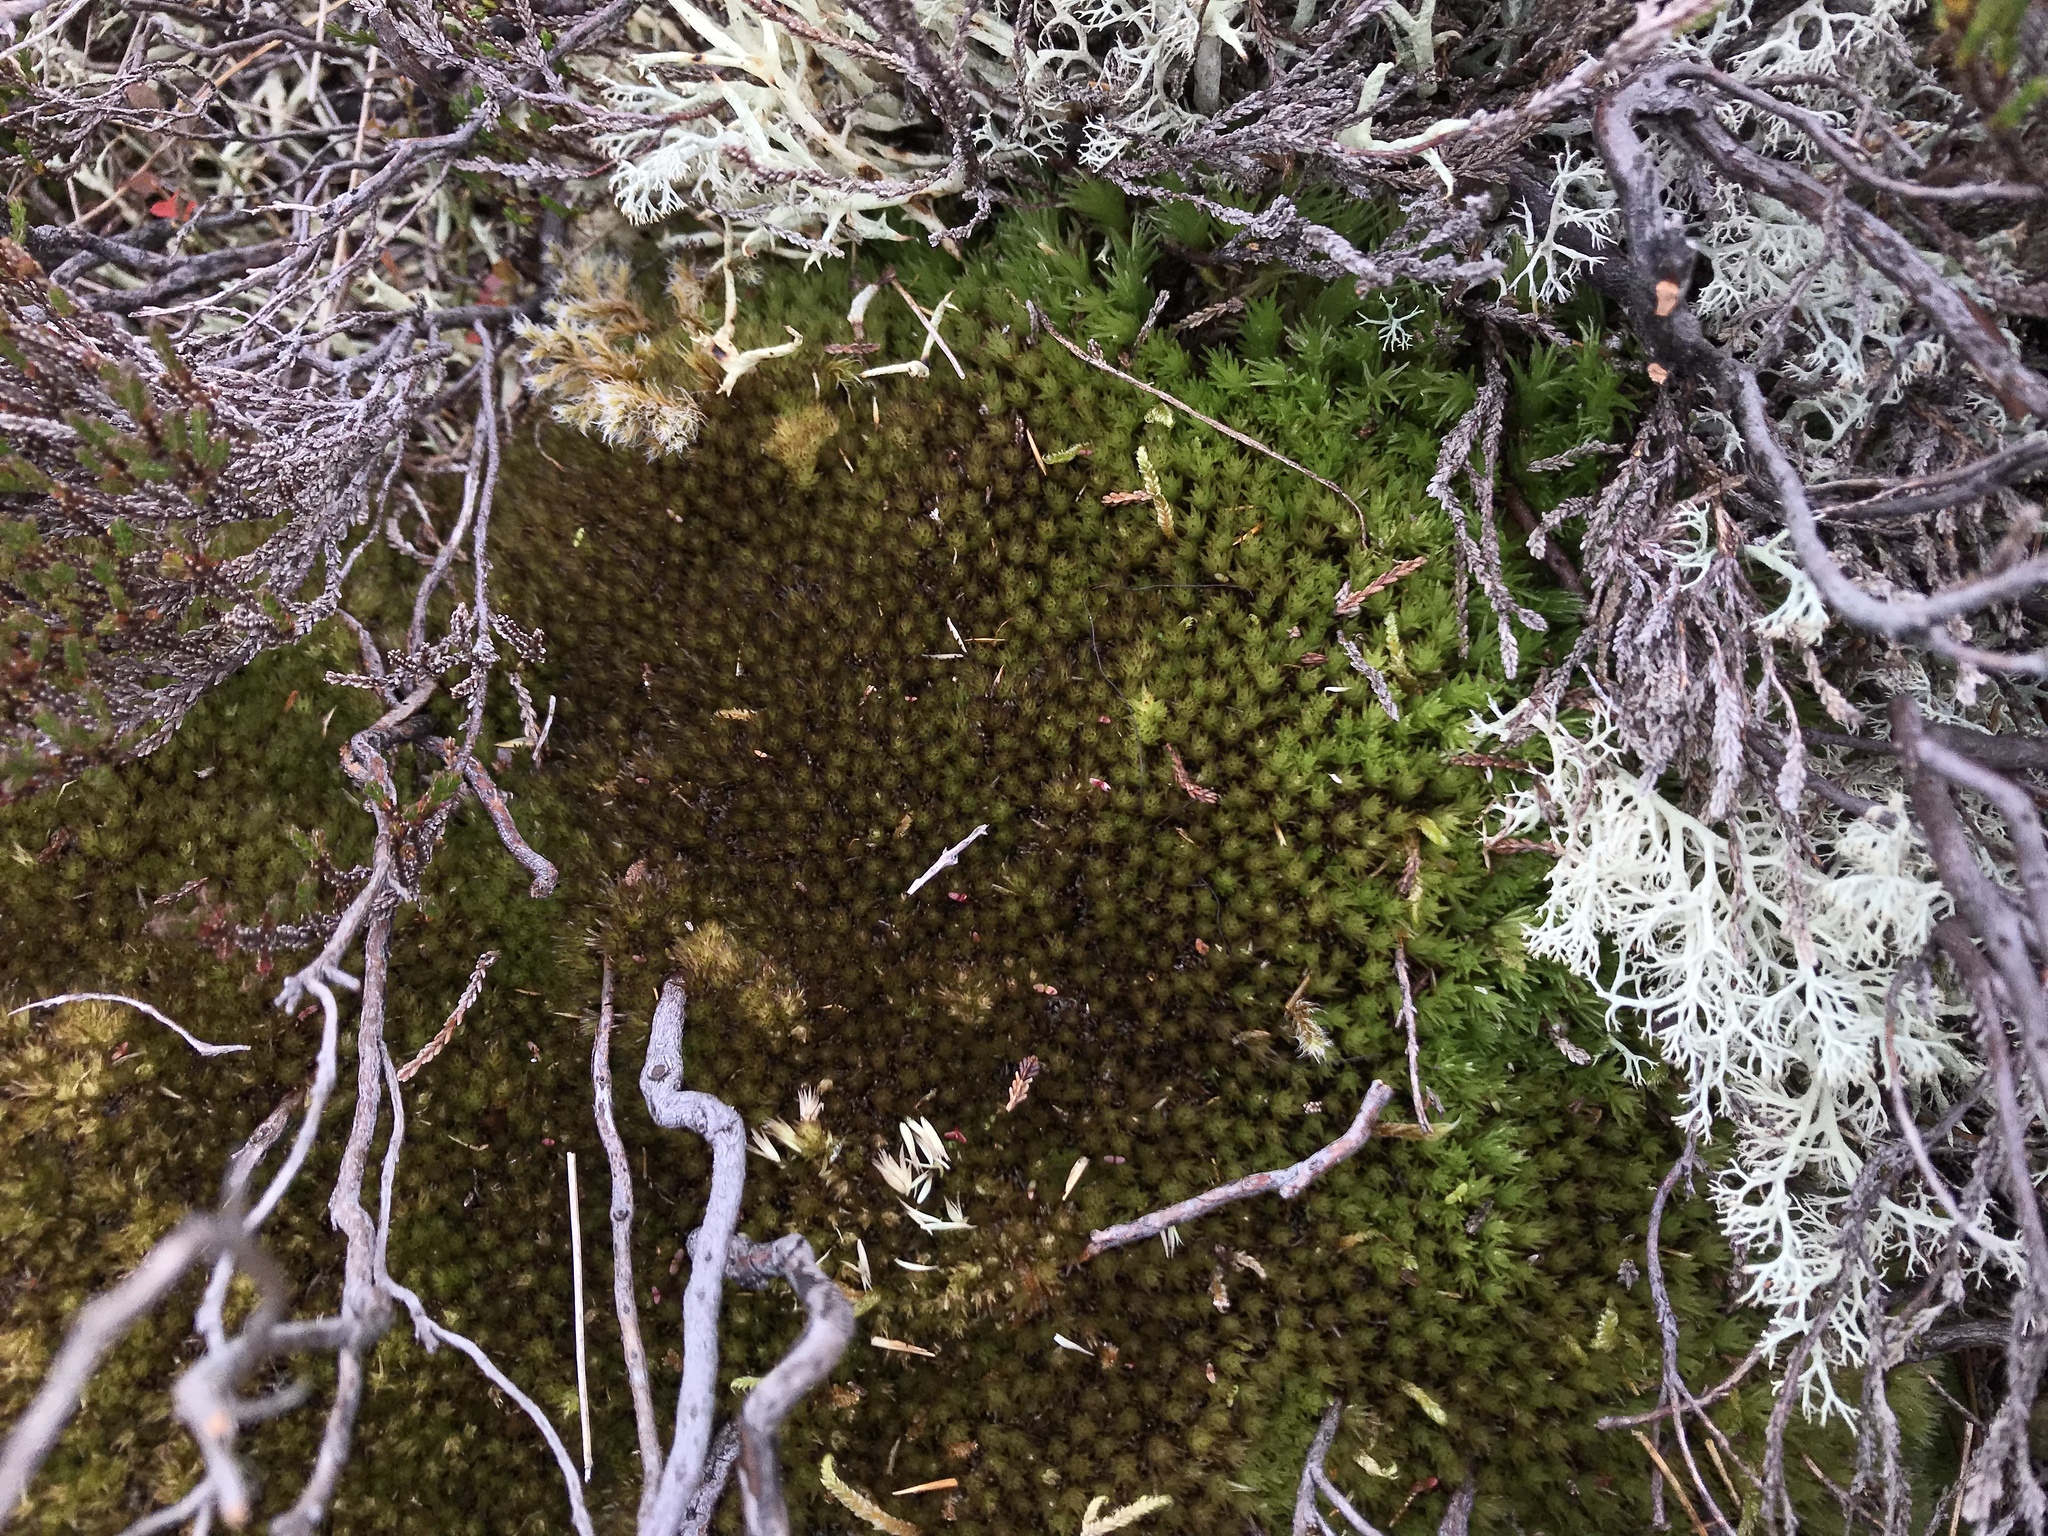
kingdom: Plantae
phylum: Bryophyta
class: Bryopsida
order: Dicranales
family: Leucobryaceae
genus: Leucobryum
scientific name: Leucobryum glaucum
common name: Large white-moss
